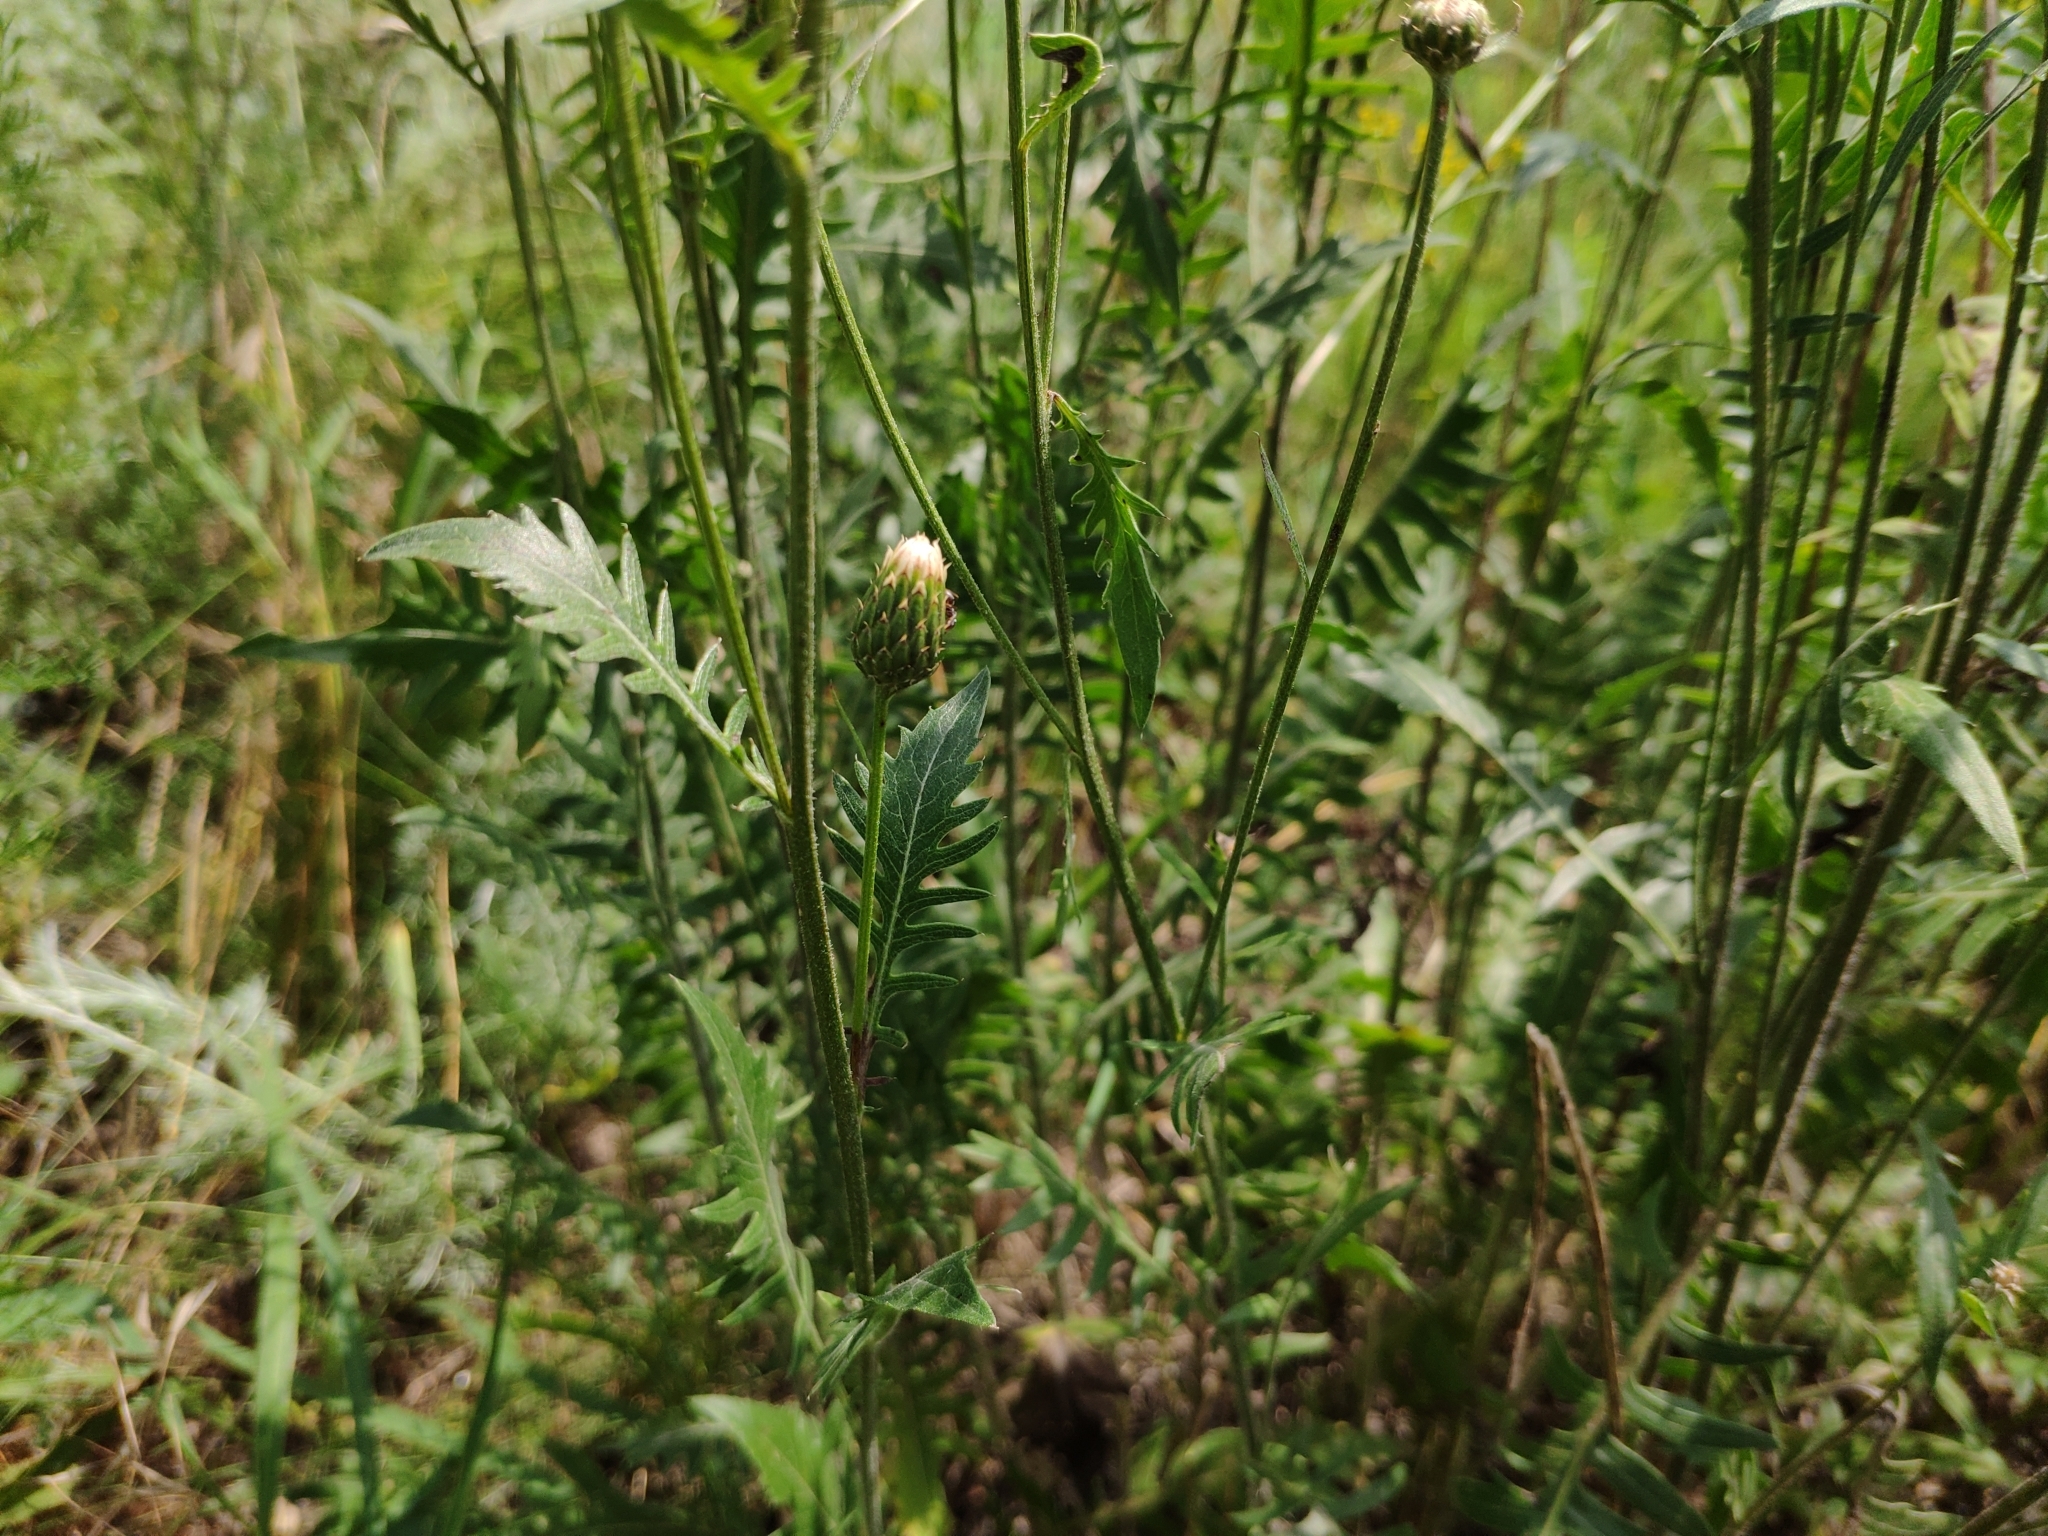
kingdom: Plantae
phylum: Tracheophyta
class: Magnoliopsida
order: Asterales
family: Asteraceae
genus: Klasea
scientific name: Klasea radiata
